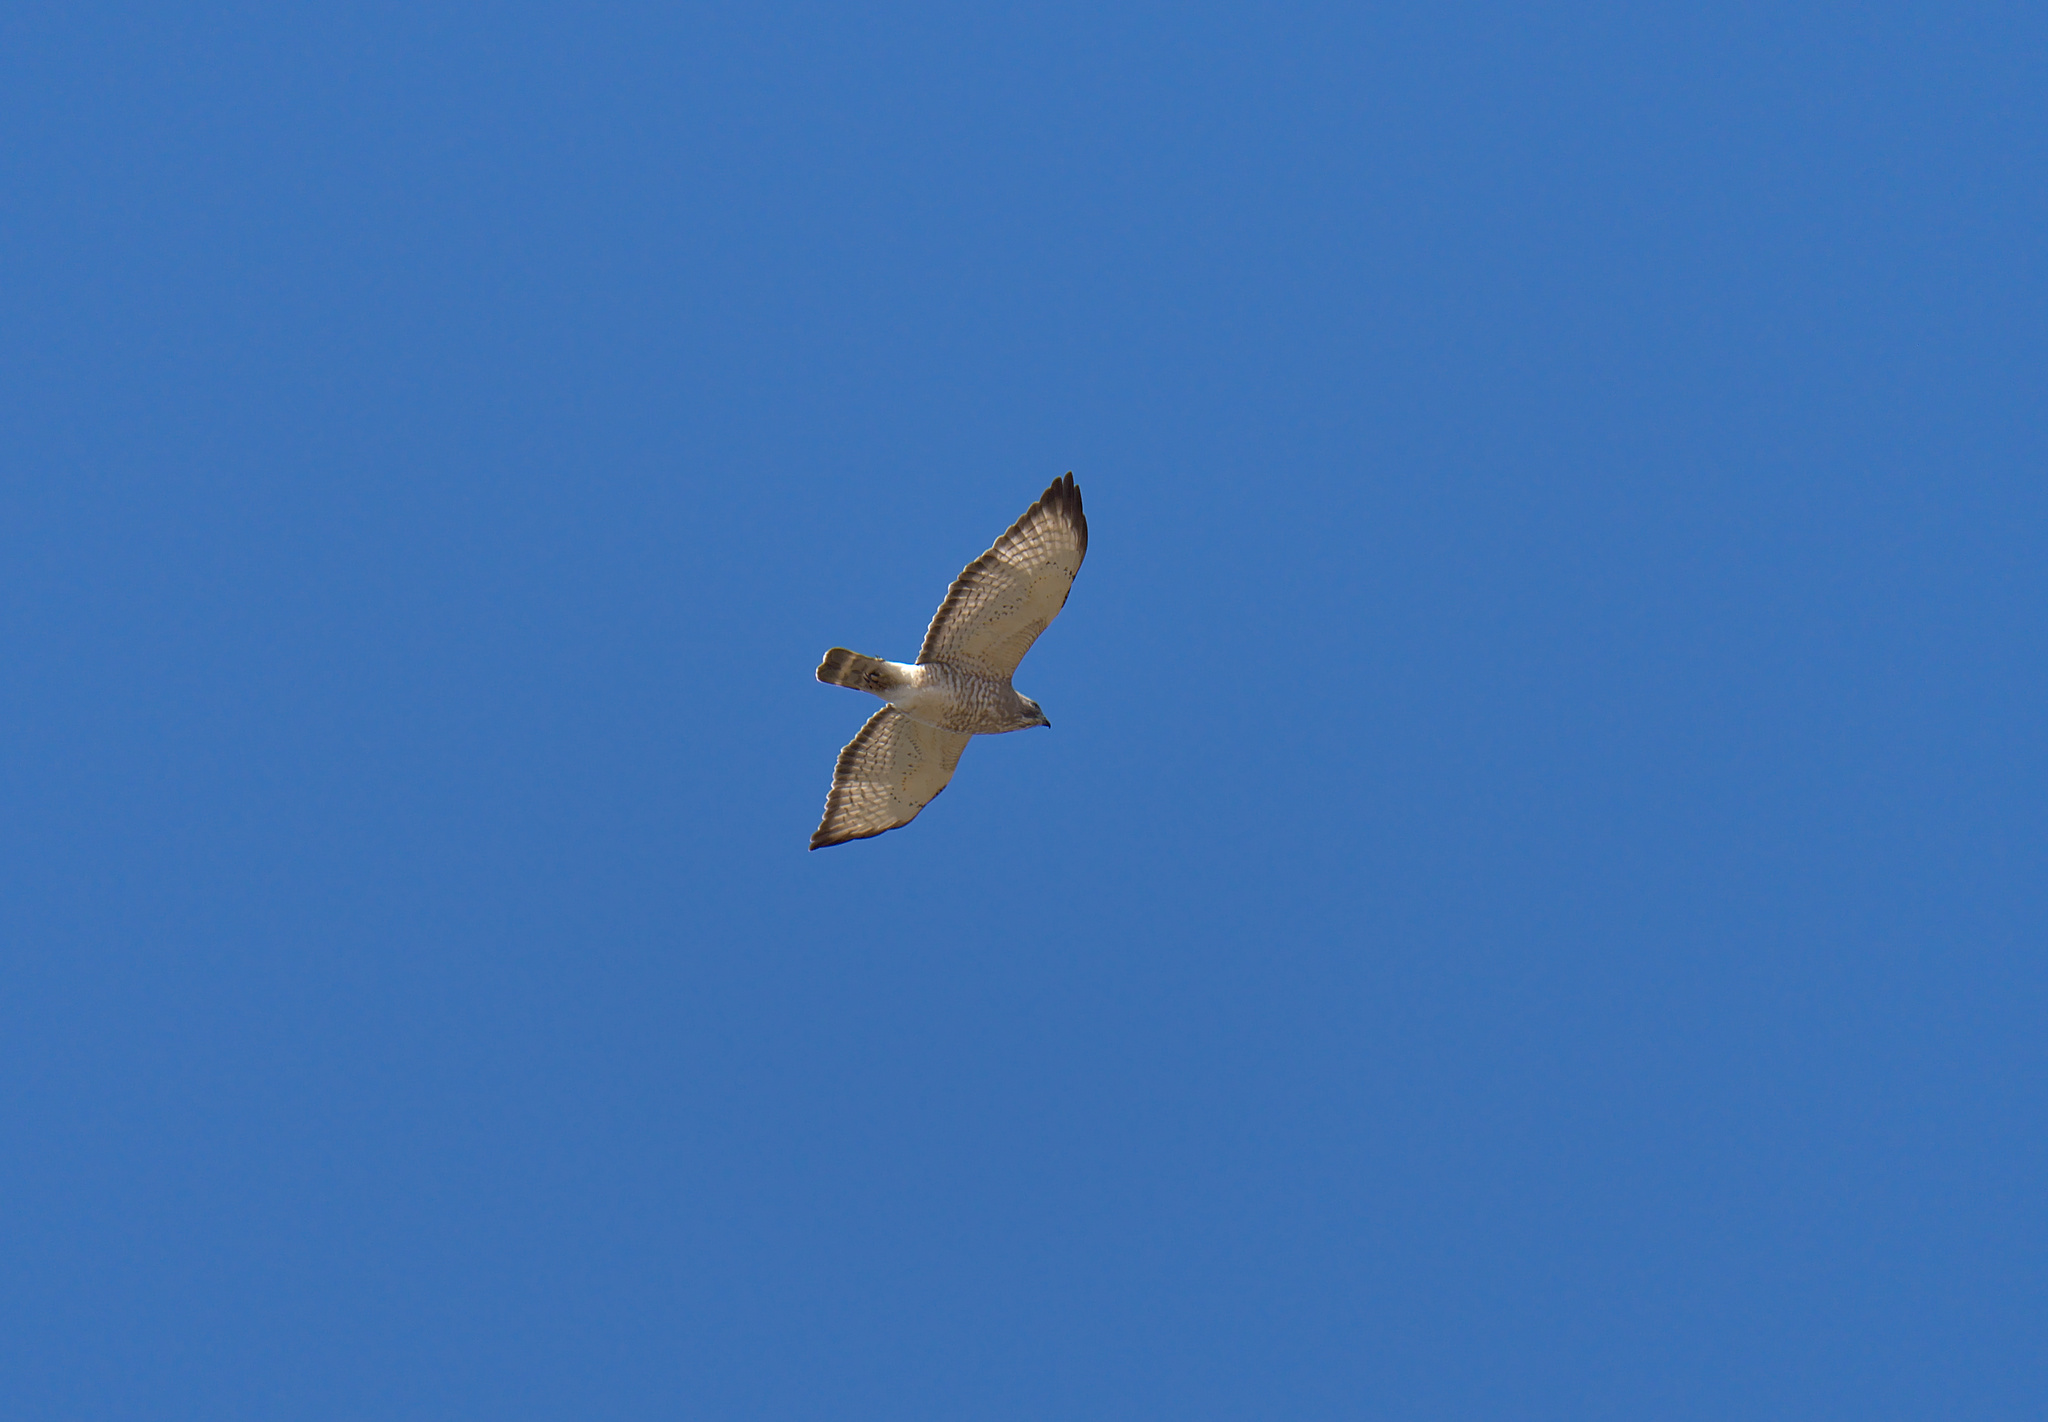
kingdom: Animalia
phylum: Chordata
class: Aves
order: Accipitriformes
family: Accipitridae
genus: Buteo
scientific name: Buteo platypterus
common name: Broad-winged hawk
